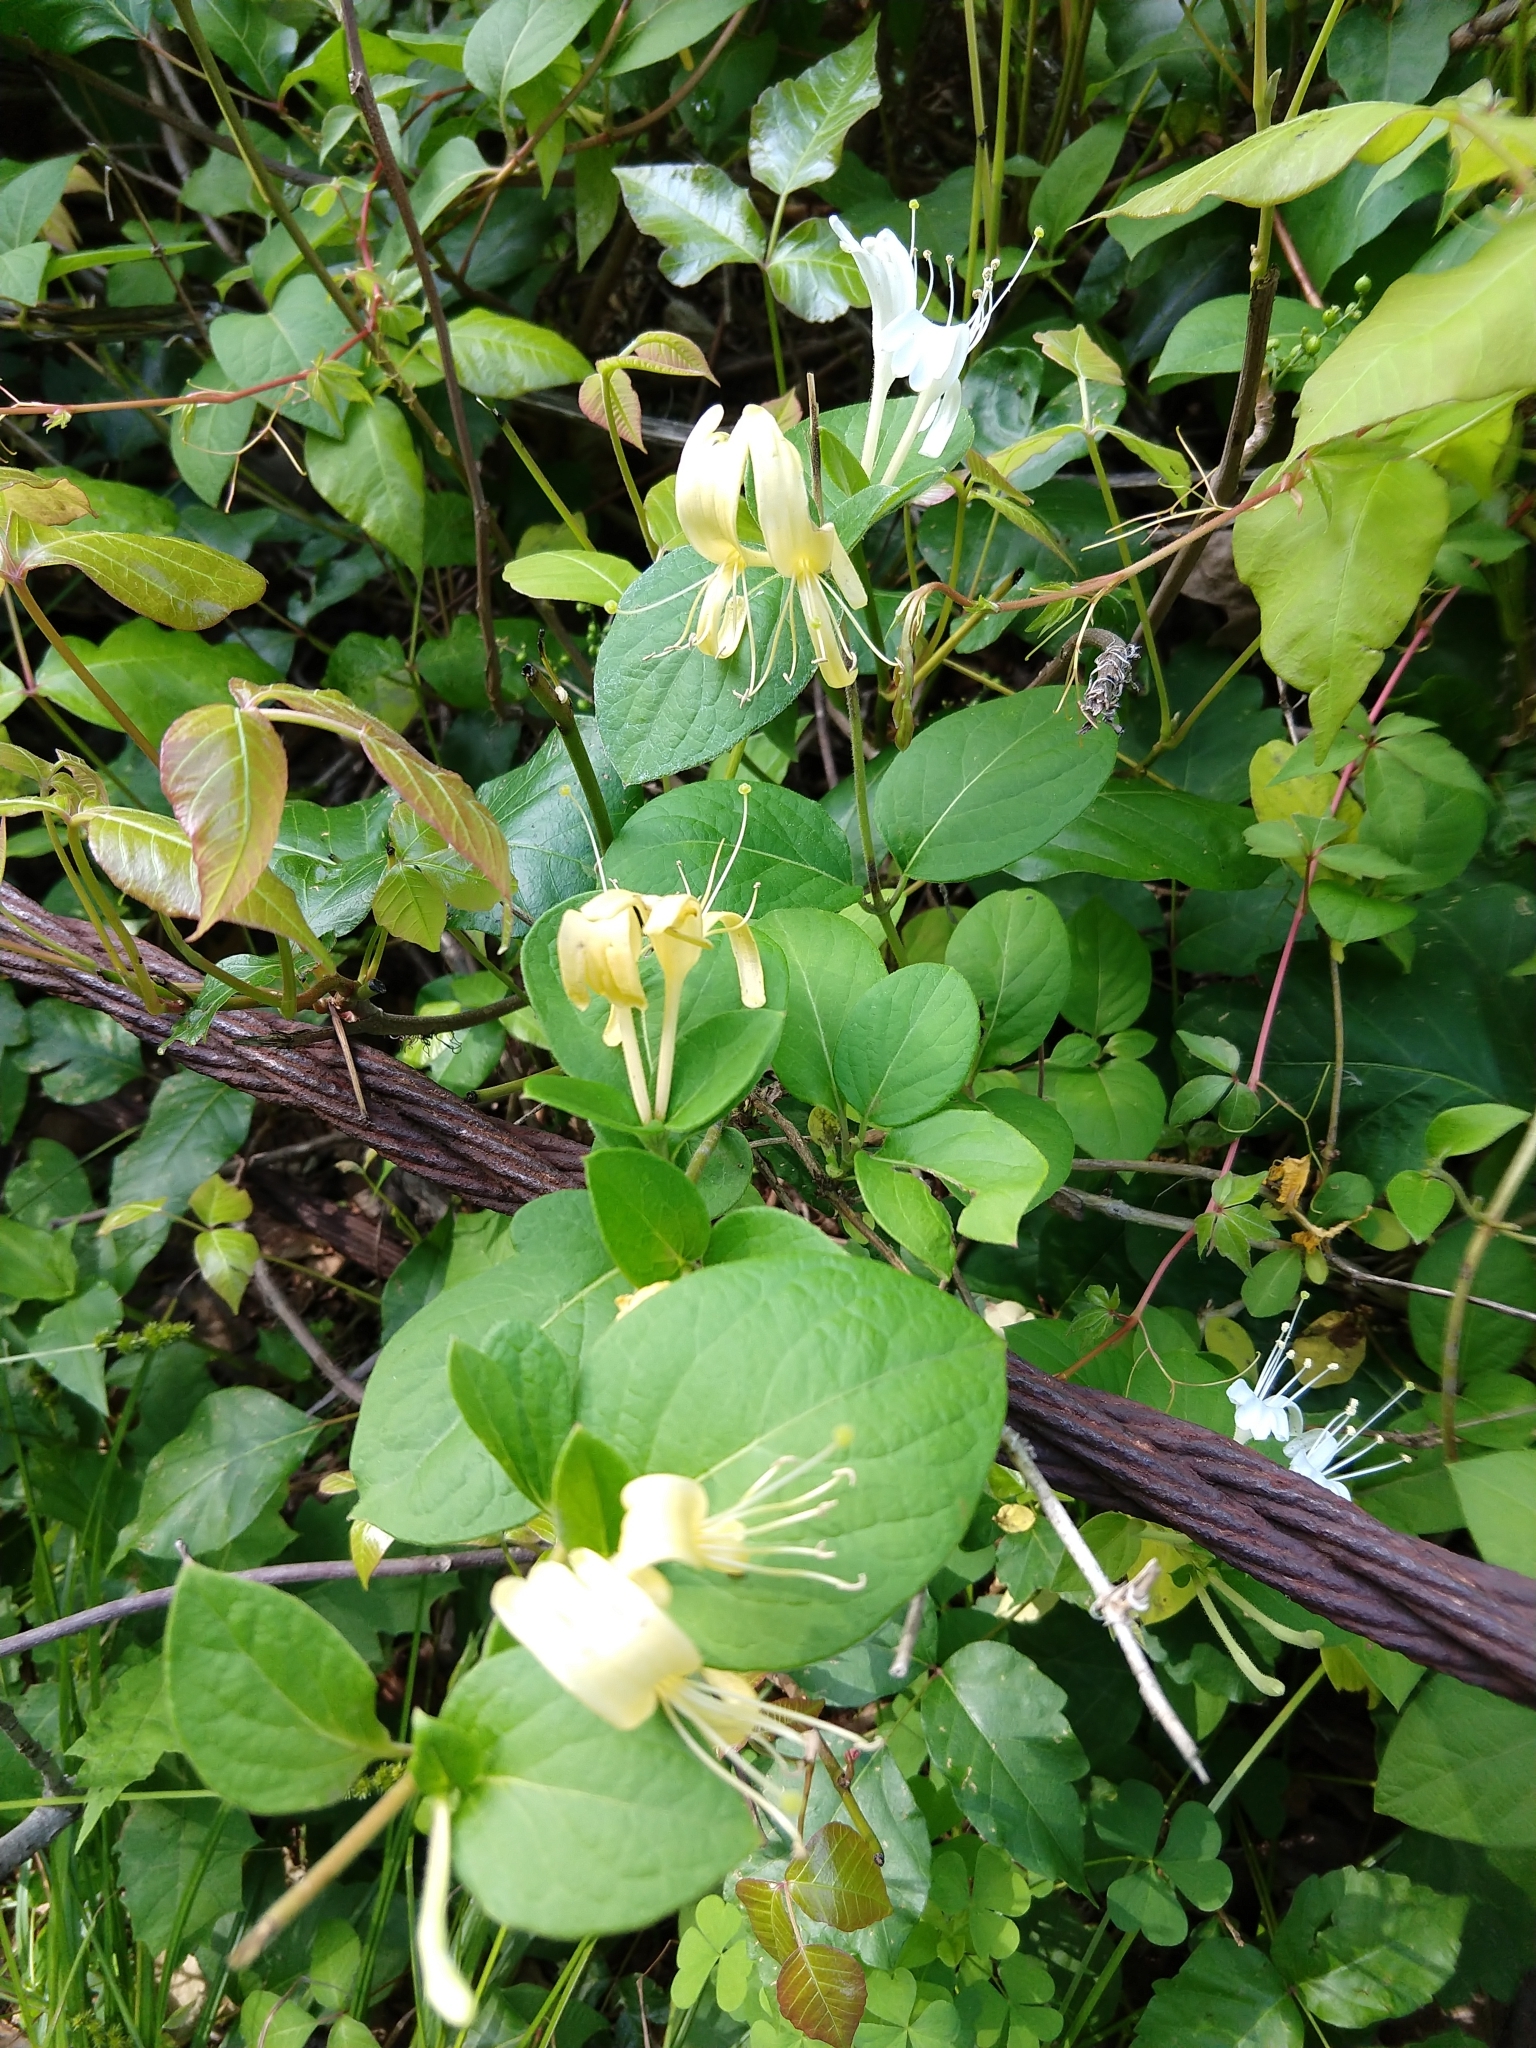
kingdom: Plantae
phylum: Tracheophyta
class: Magnoliopsida
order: Dipsacales
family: Caprifoliaceae
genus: Lonicera
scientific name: Lonicera japonica
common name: Japanese honeysuckle
